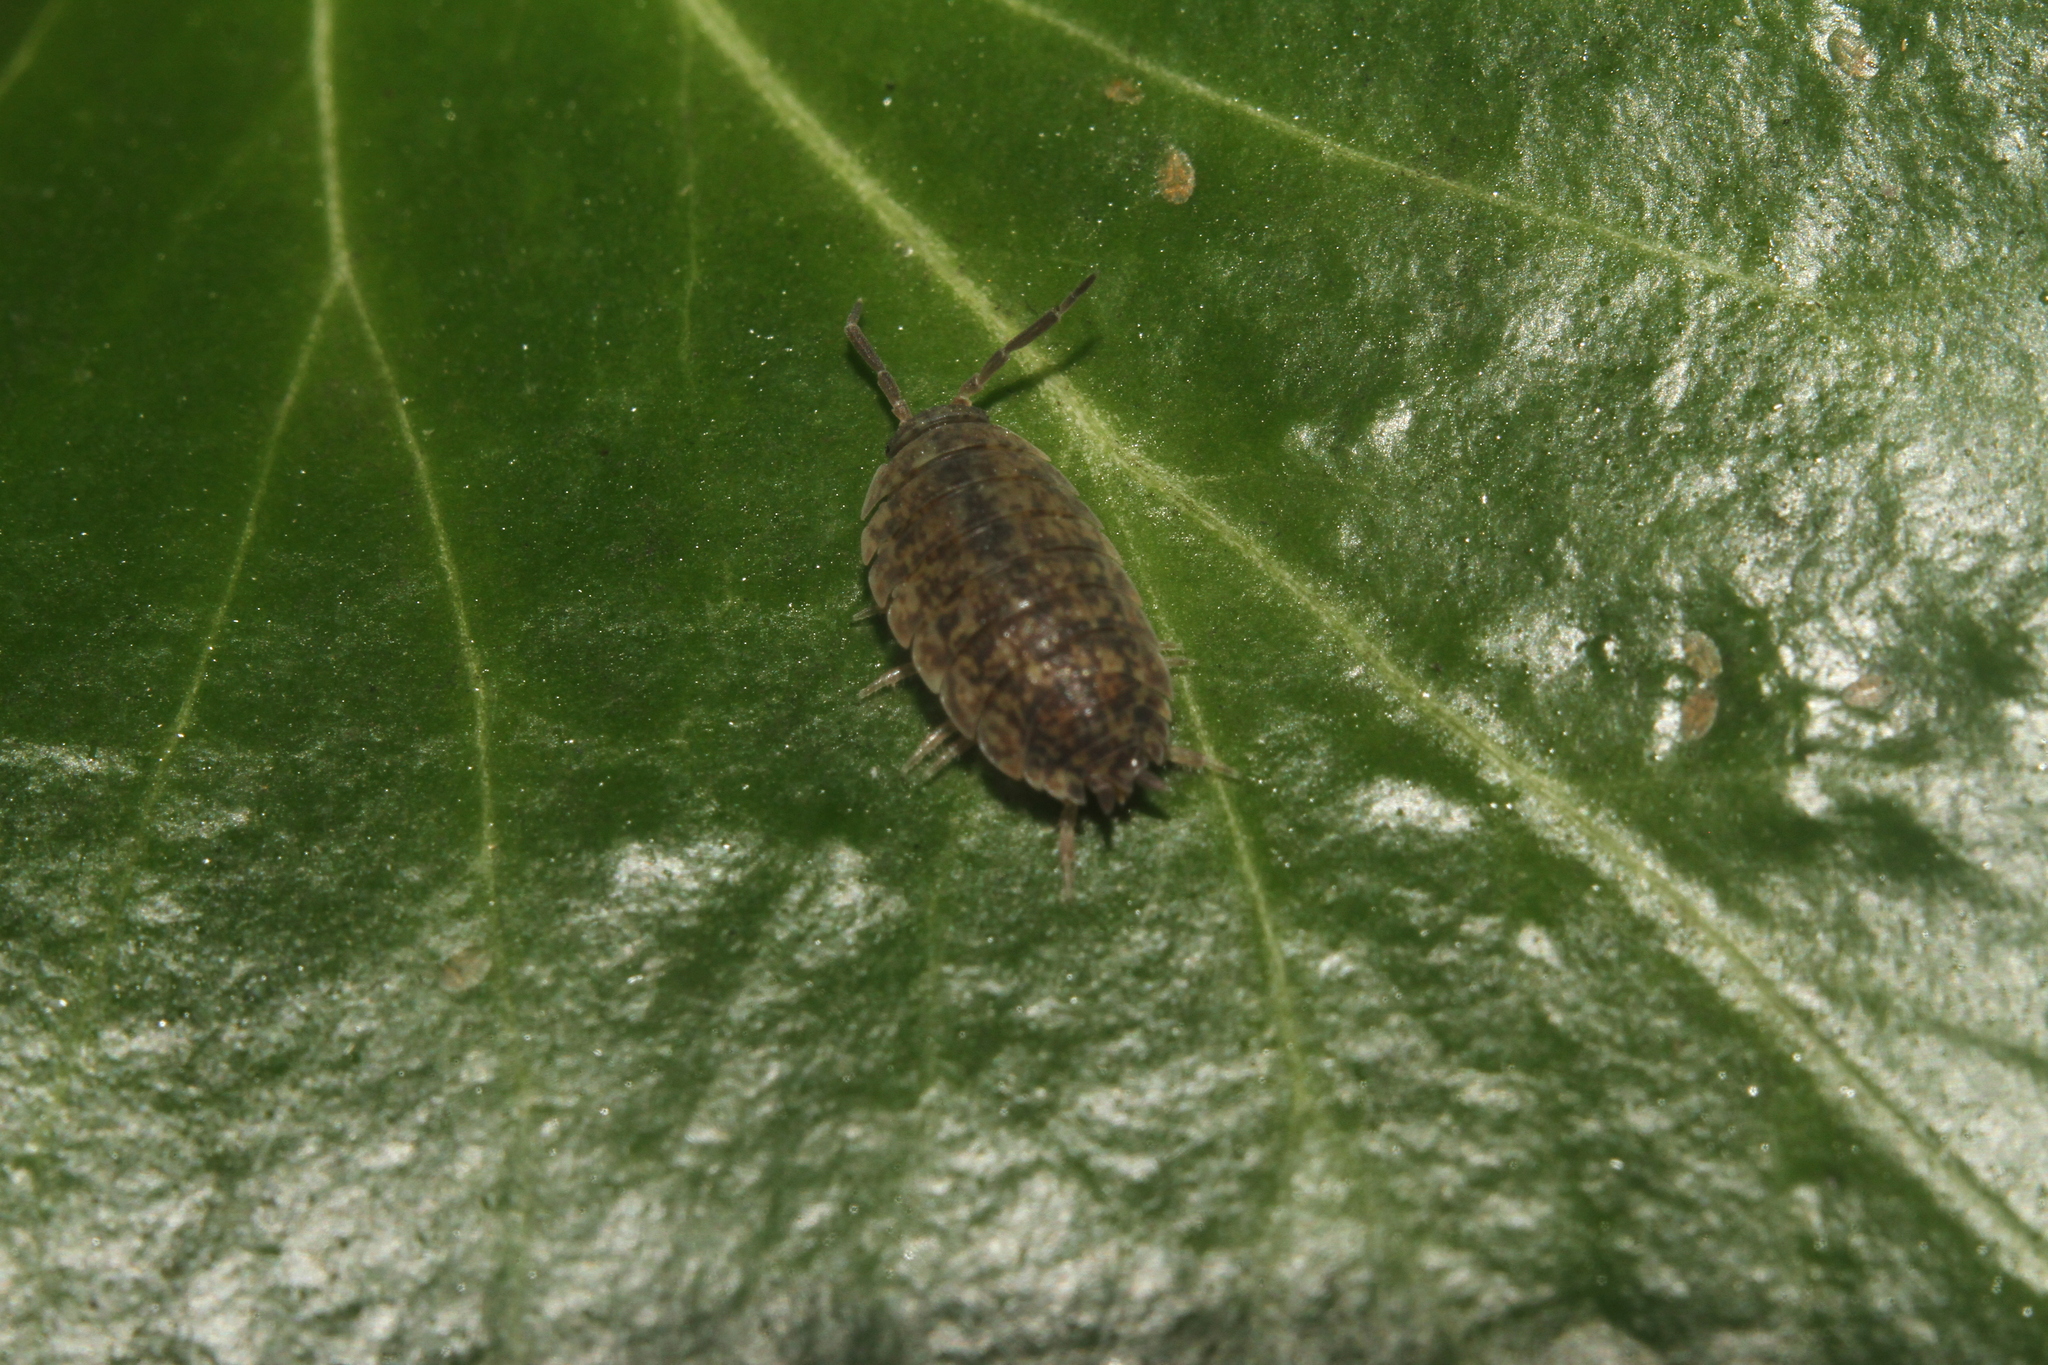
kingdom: Animalia
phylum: Arthropoda
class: Malacostraca
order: Isopoda
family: Porcellionidae
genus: Porcellio
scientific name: Porcellio scaber
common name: Common rough woodlouse
